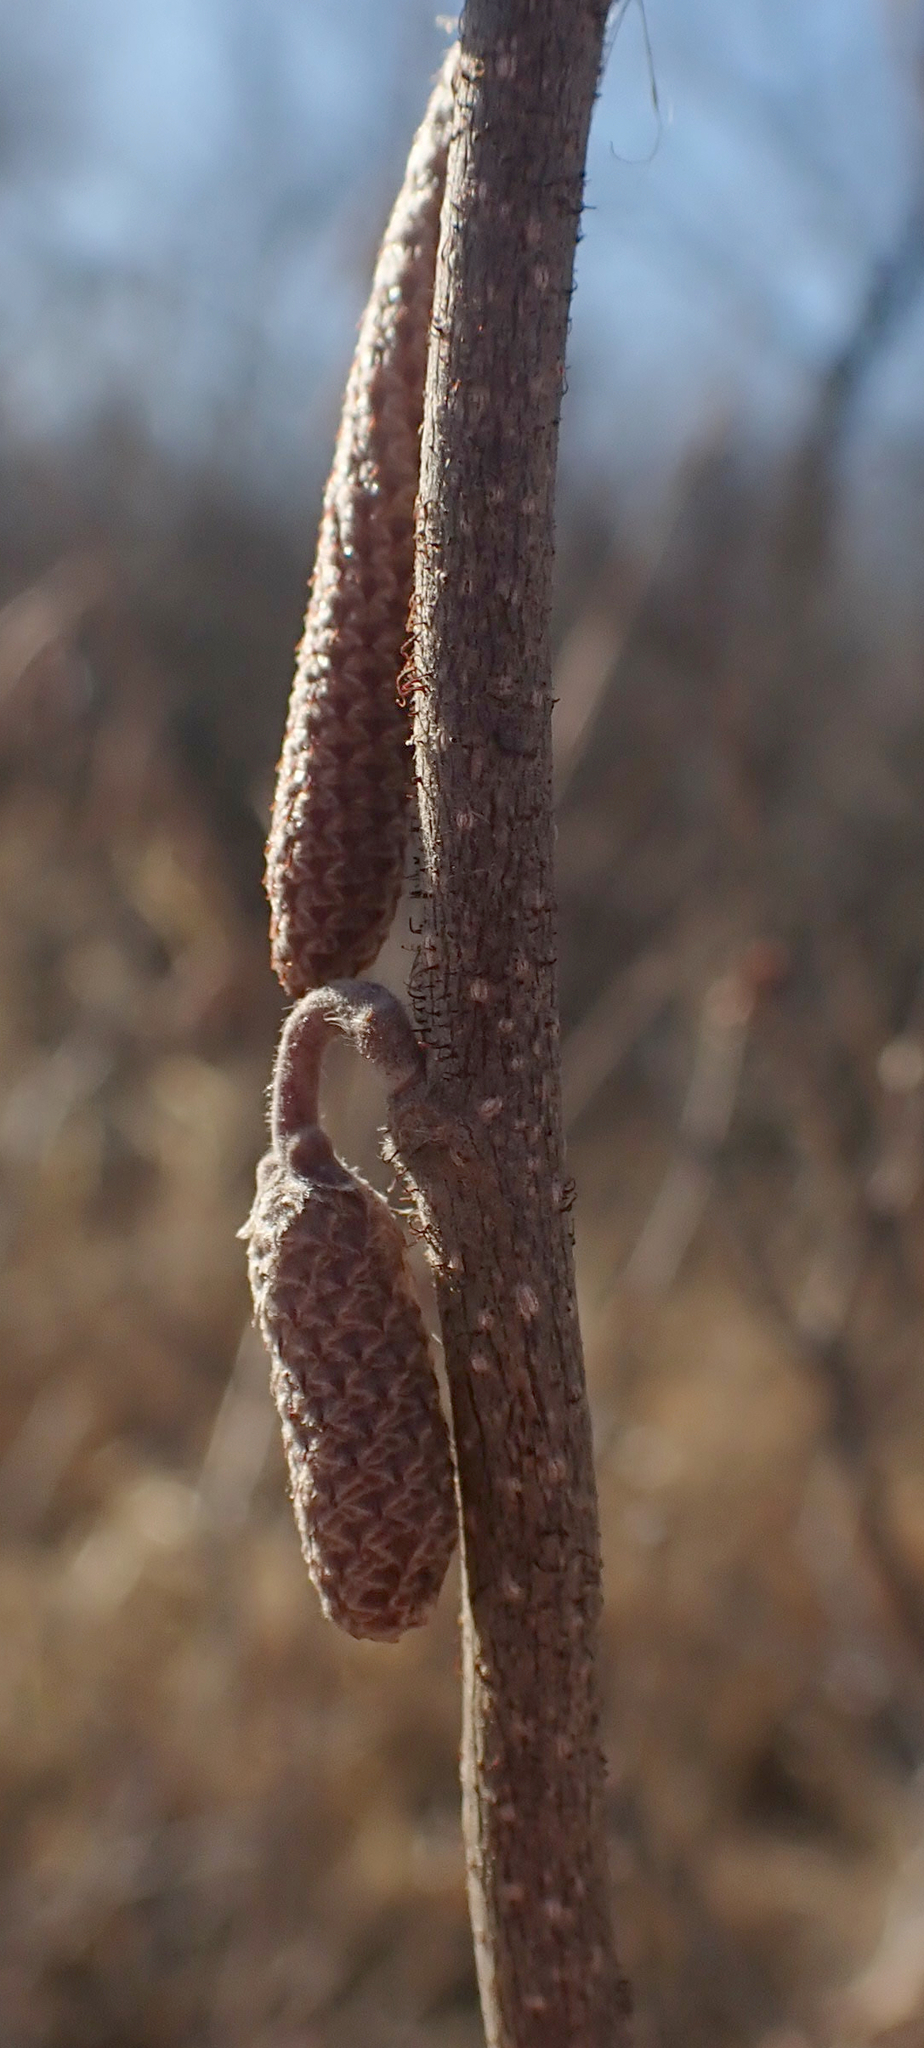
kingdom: Plantae
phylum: Tracheophyta
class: Magnoliopsida
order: Fagales
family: Betulaceae
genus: Corylus
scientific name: Corylus americana
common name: American hazel
